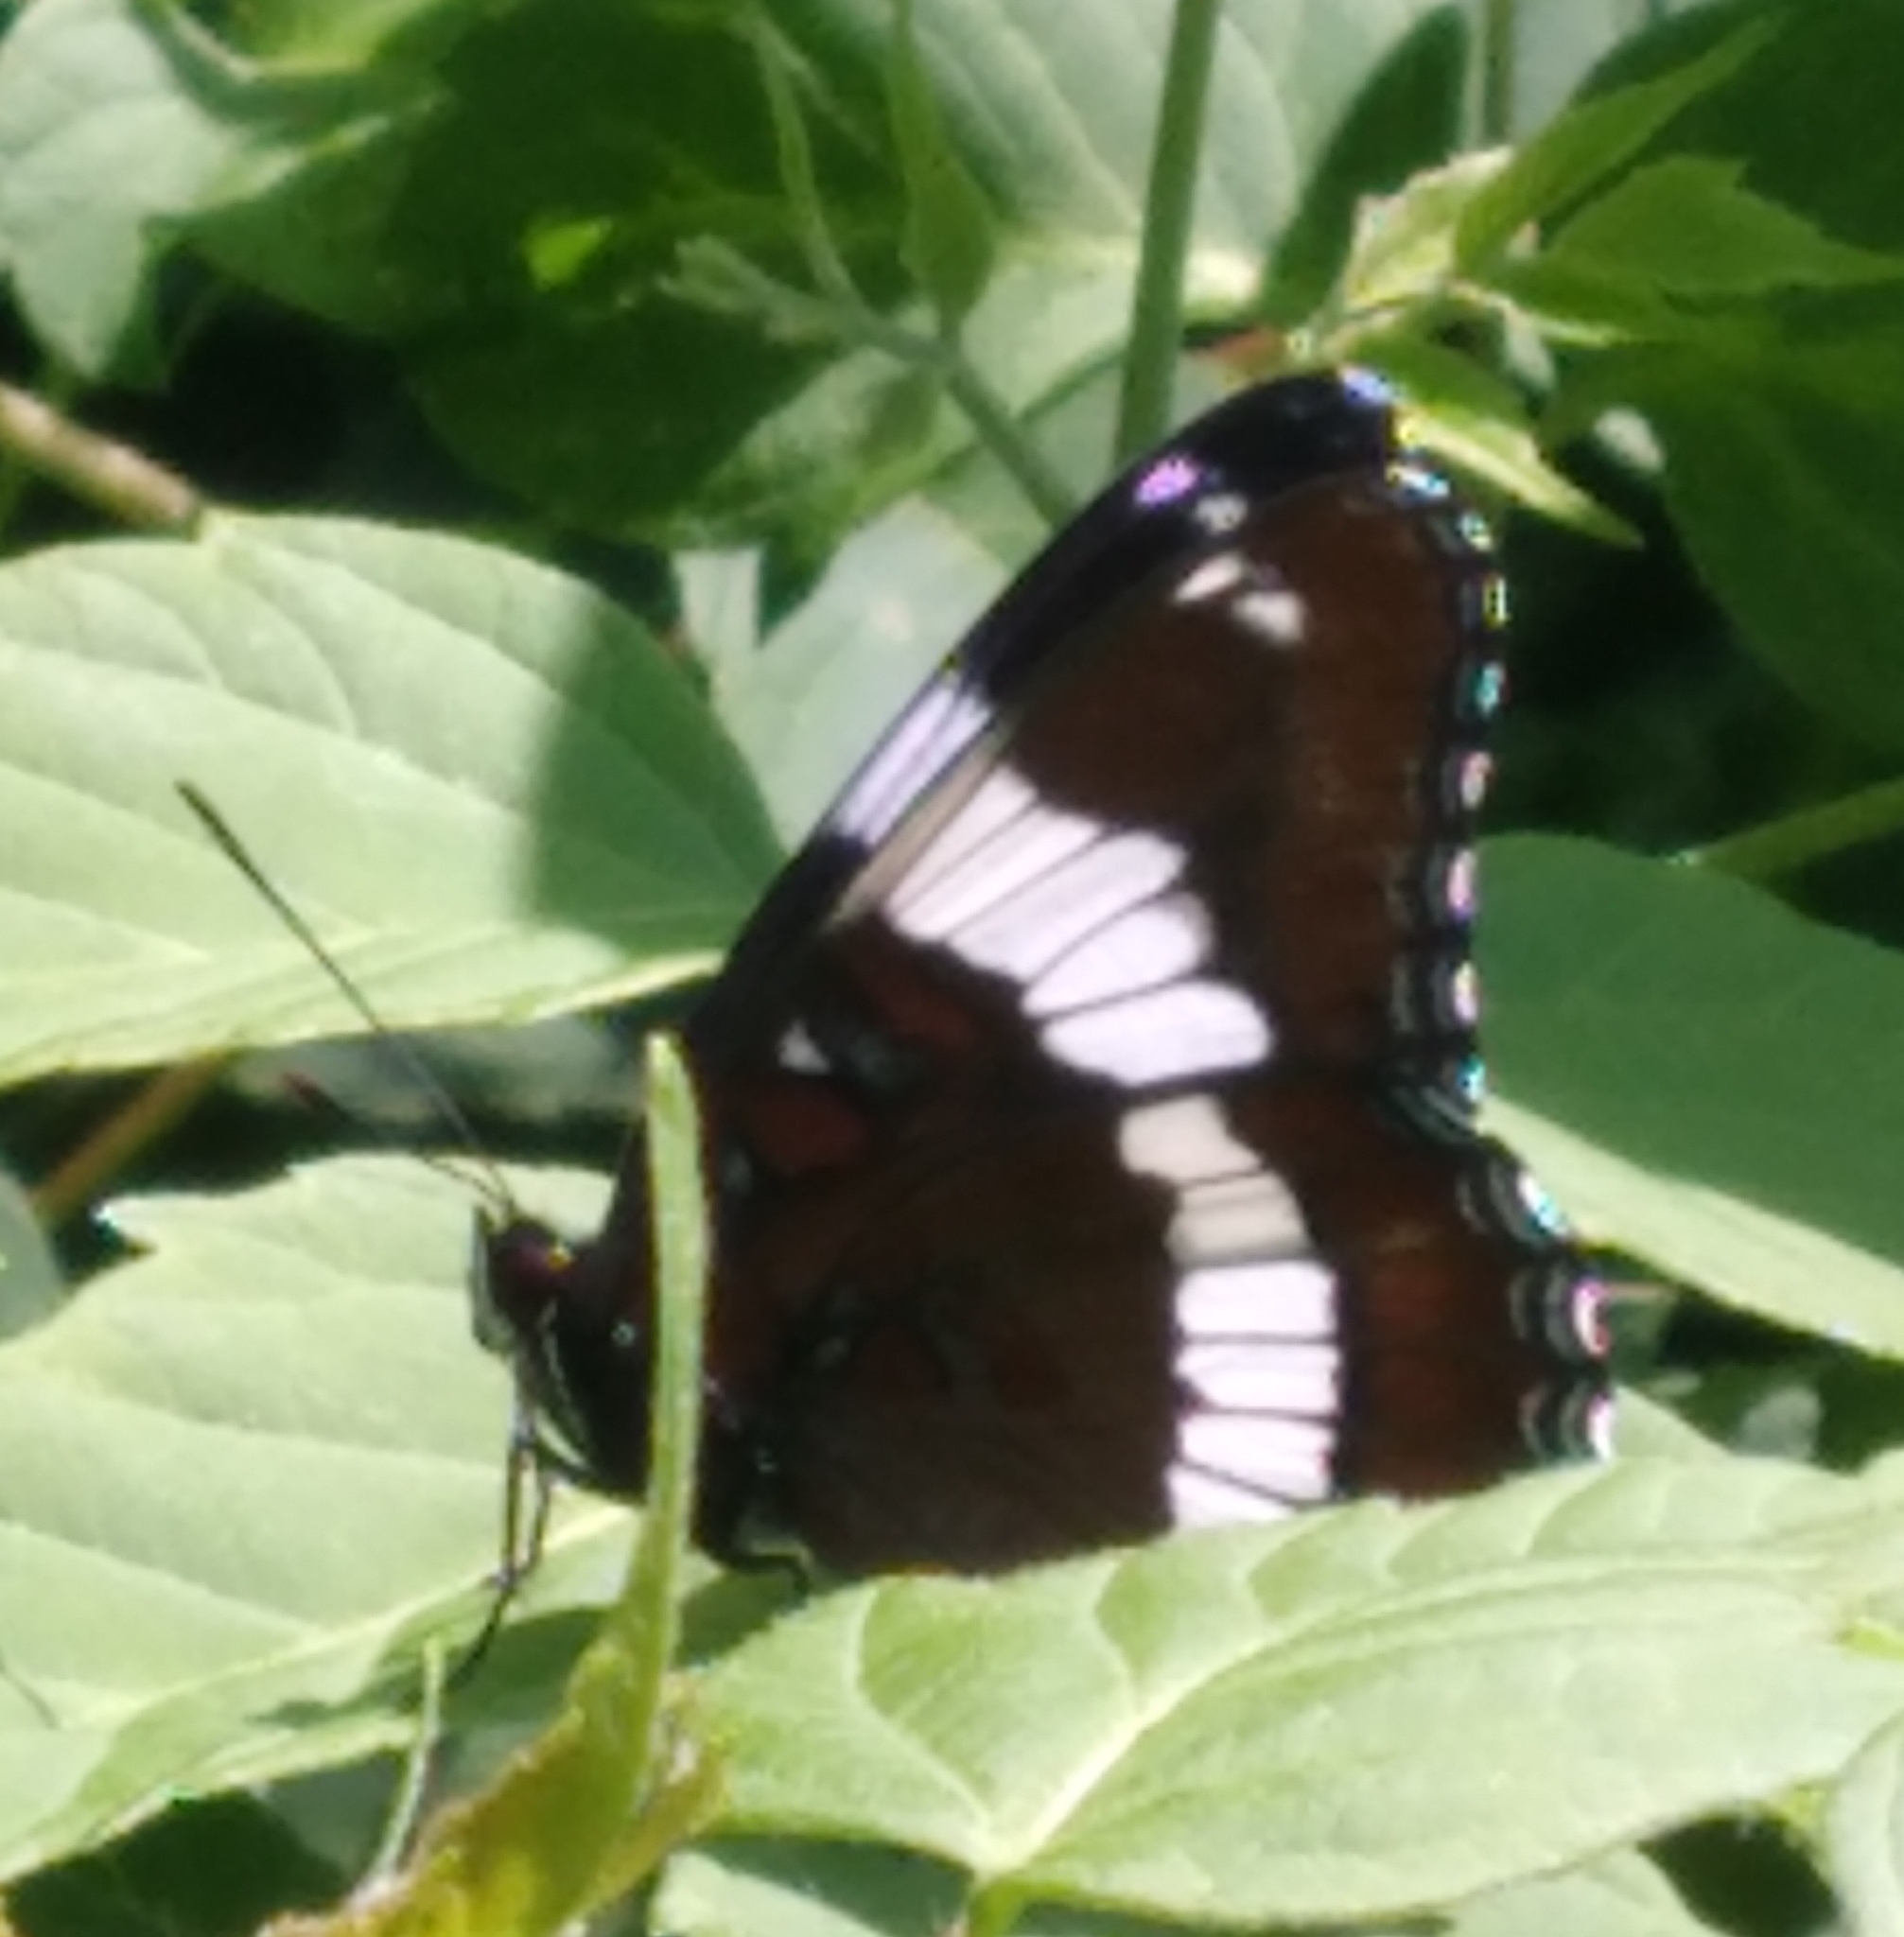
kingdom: Animalia
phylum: Arthropoda
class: Insecta
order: Lepidoptera
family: Nymphalidae
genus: Limenitis
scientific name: Limenitis arthemis
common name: Red-spotted admiral
